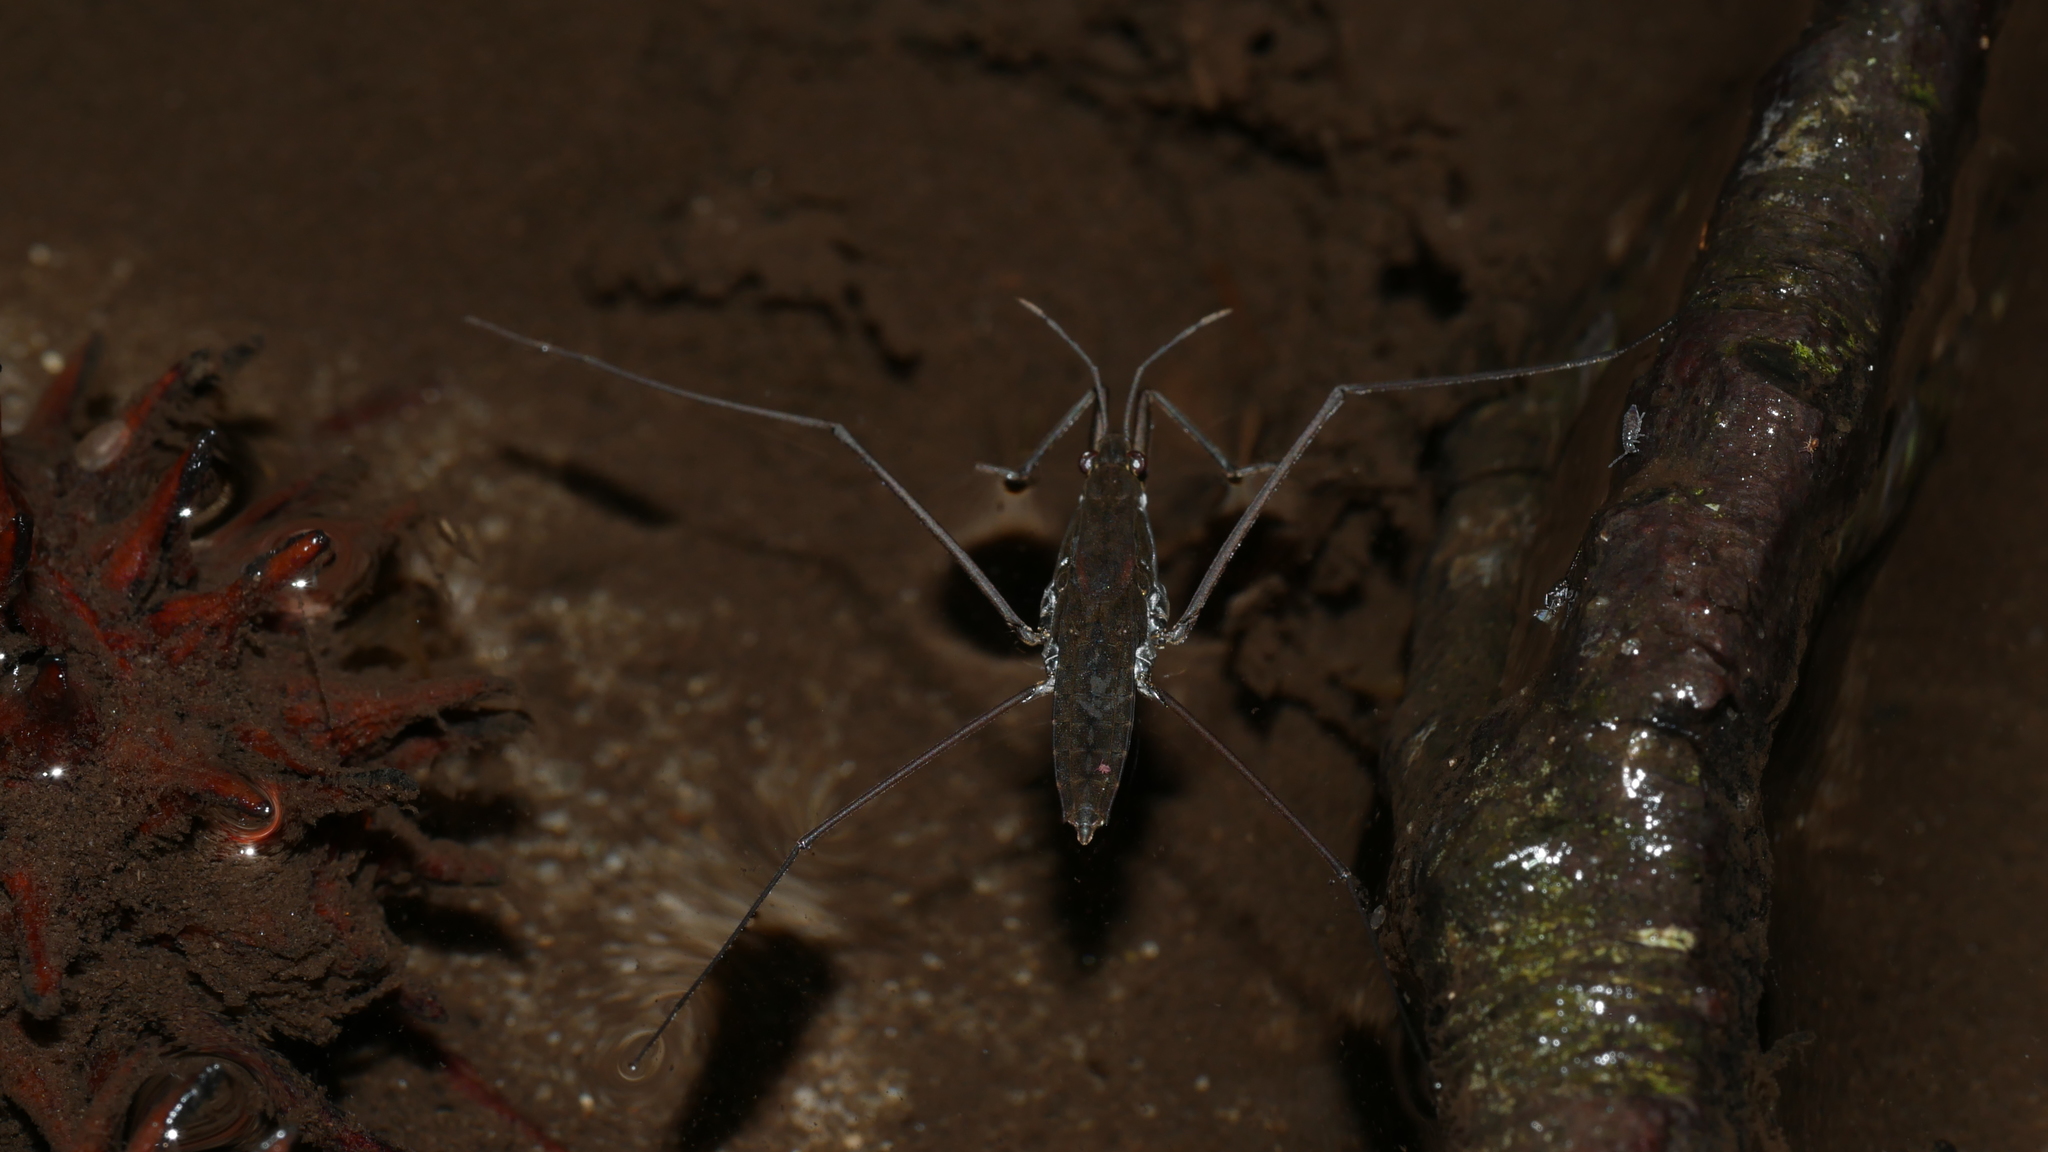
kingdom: Animalia
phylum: Arthropoda
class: Insecta
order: Hemiptera
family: Gerridae
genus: Aquarius
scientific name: Aquarius
